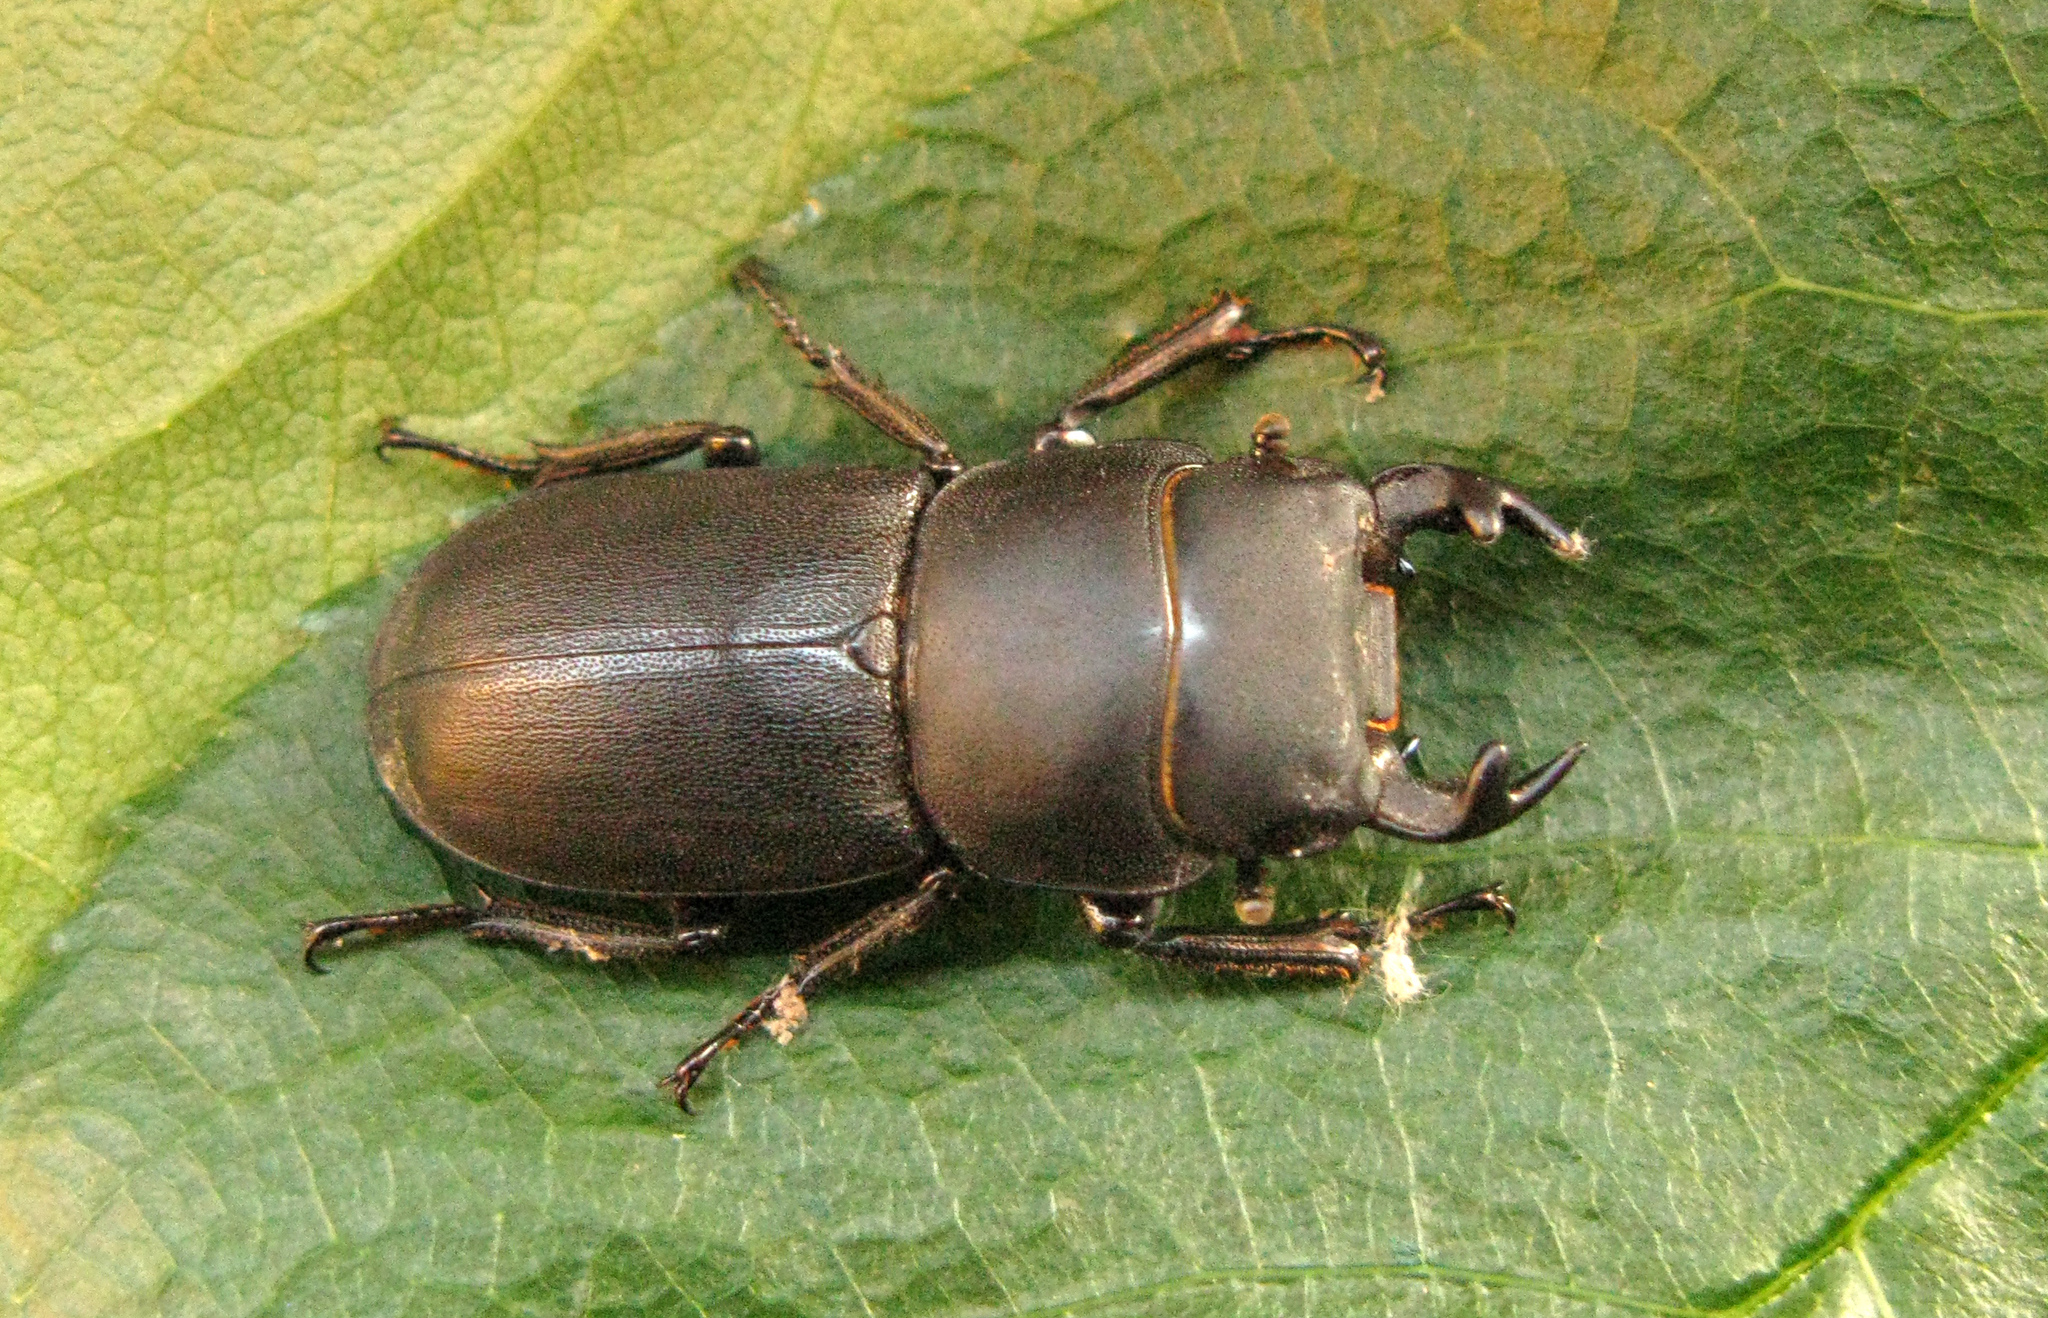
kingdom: Animalia
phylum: Arthropoda
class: Insecta
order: Coleoptera
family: Lucanidae
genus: Dorcus
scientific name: Dorcus parallelipipedus
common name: Lesser stag beetle
